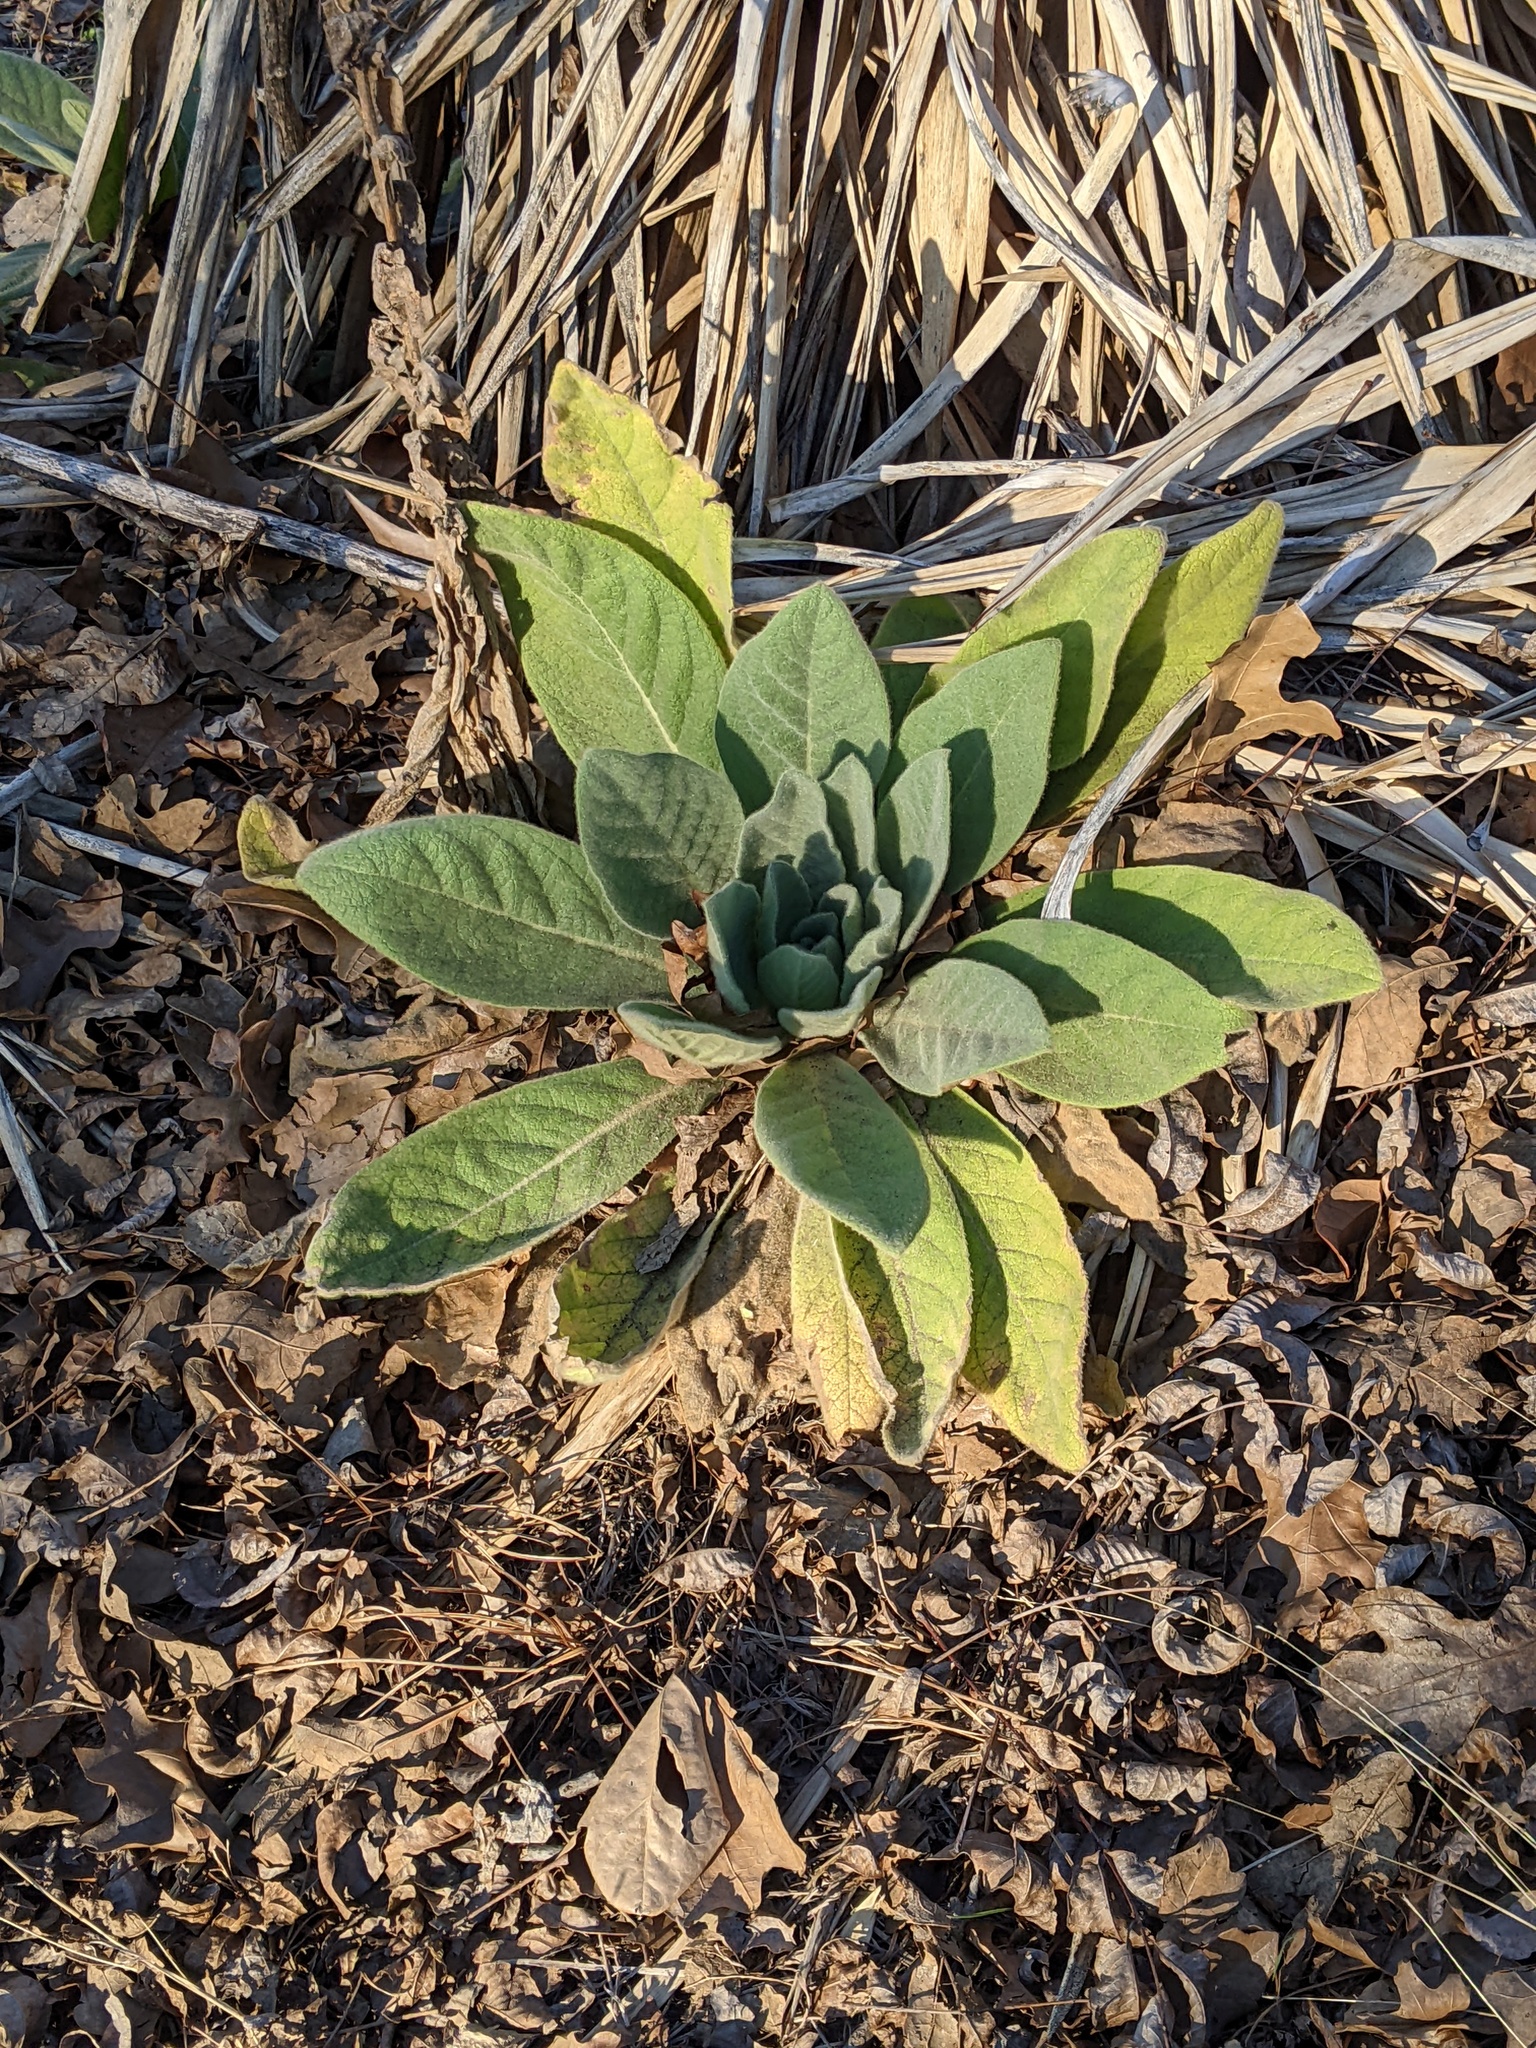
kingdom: Plantae
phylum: Tracheophyta
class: Magnoliopsida
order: Lamiales
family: Scrophulariaceae
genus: Verbascum
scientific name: Verbascum thapsus
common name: Common mullein
